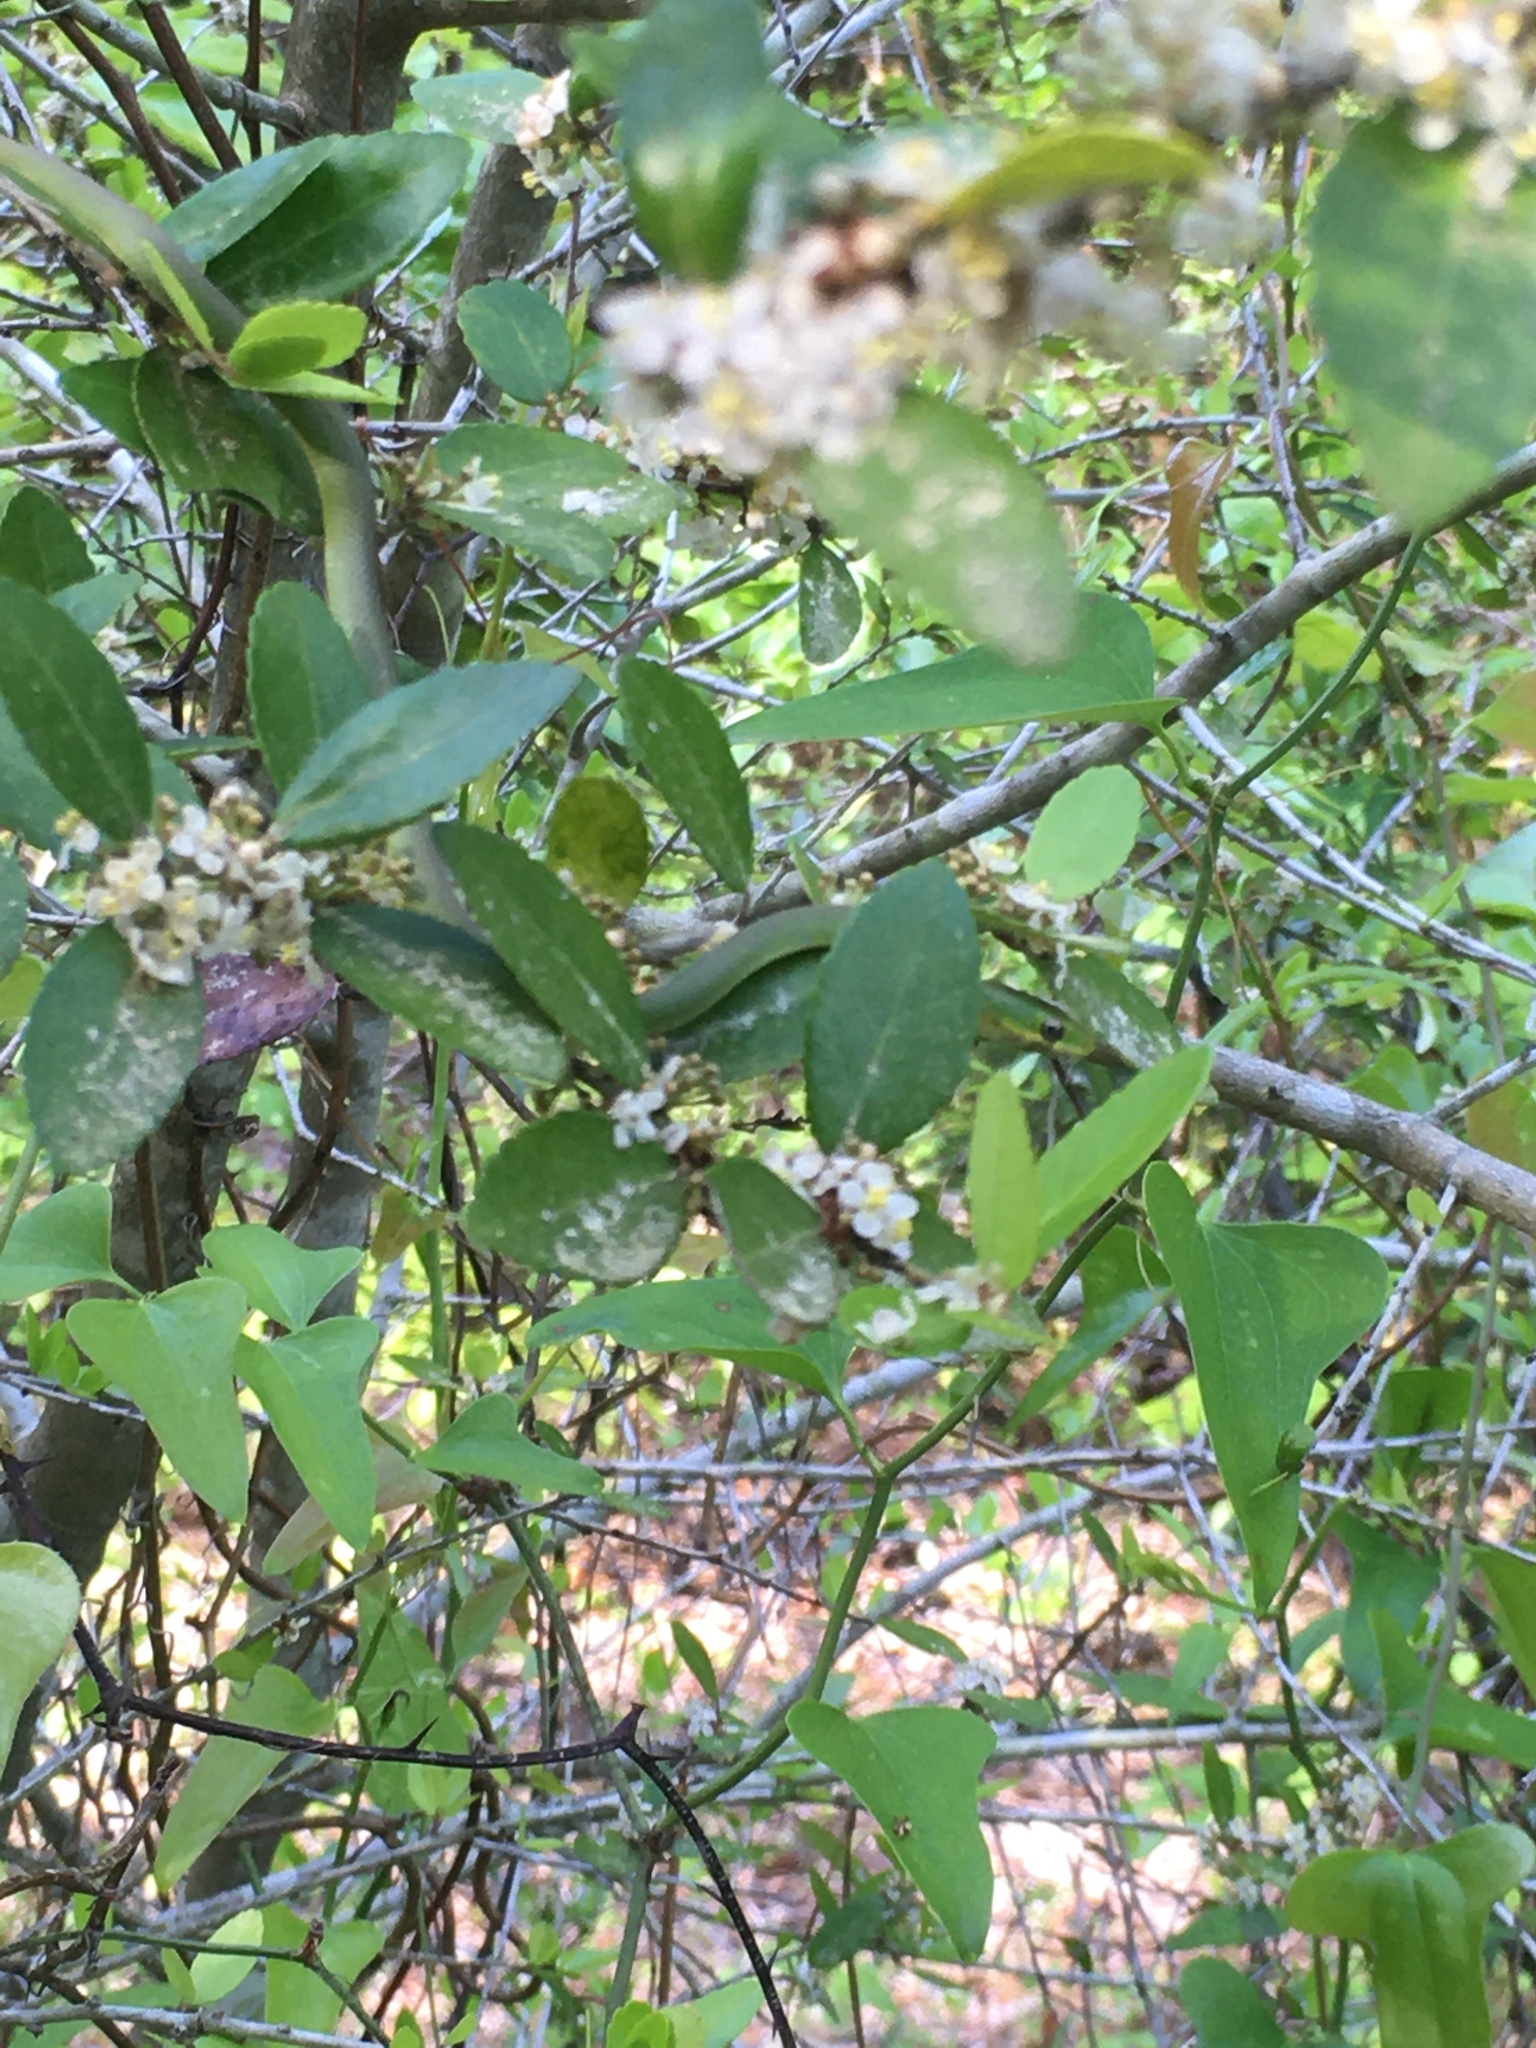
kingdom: Animalia
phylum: Chordata
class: Squamata
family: Colubridae
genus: Opheodrys
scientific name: Opheodrys aestivus
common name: Rough greensnake
